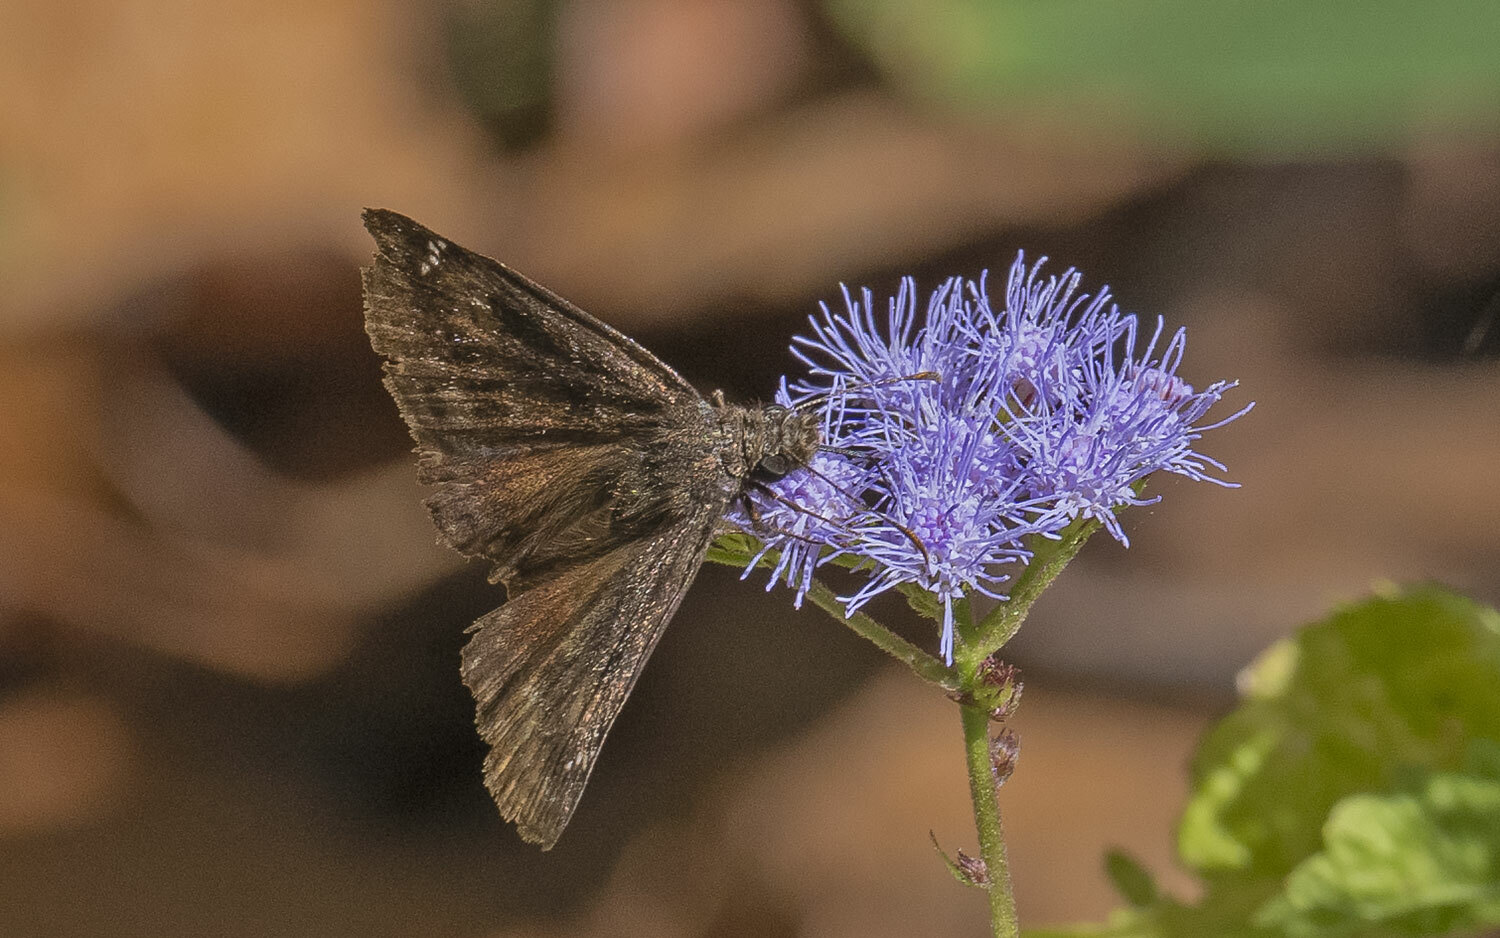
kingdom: Animalia
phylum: Arthropoda
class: Insecta
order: Lepidoptera
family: Hesperiidae
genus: Erynnis
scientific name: Erynnis baptisiae
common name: Wild indigo duskywing
